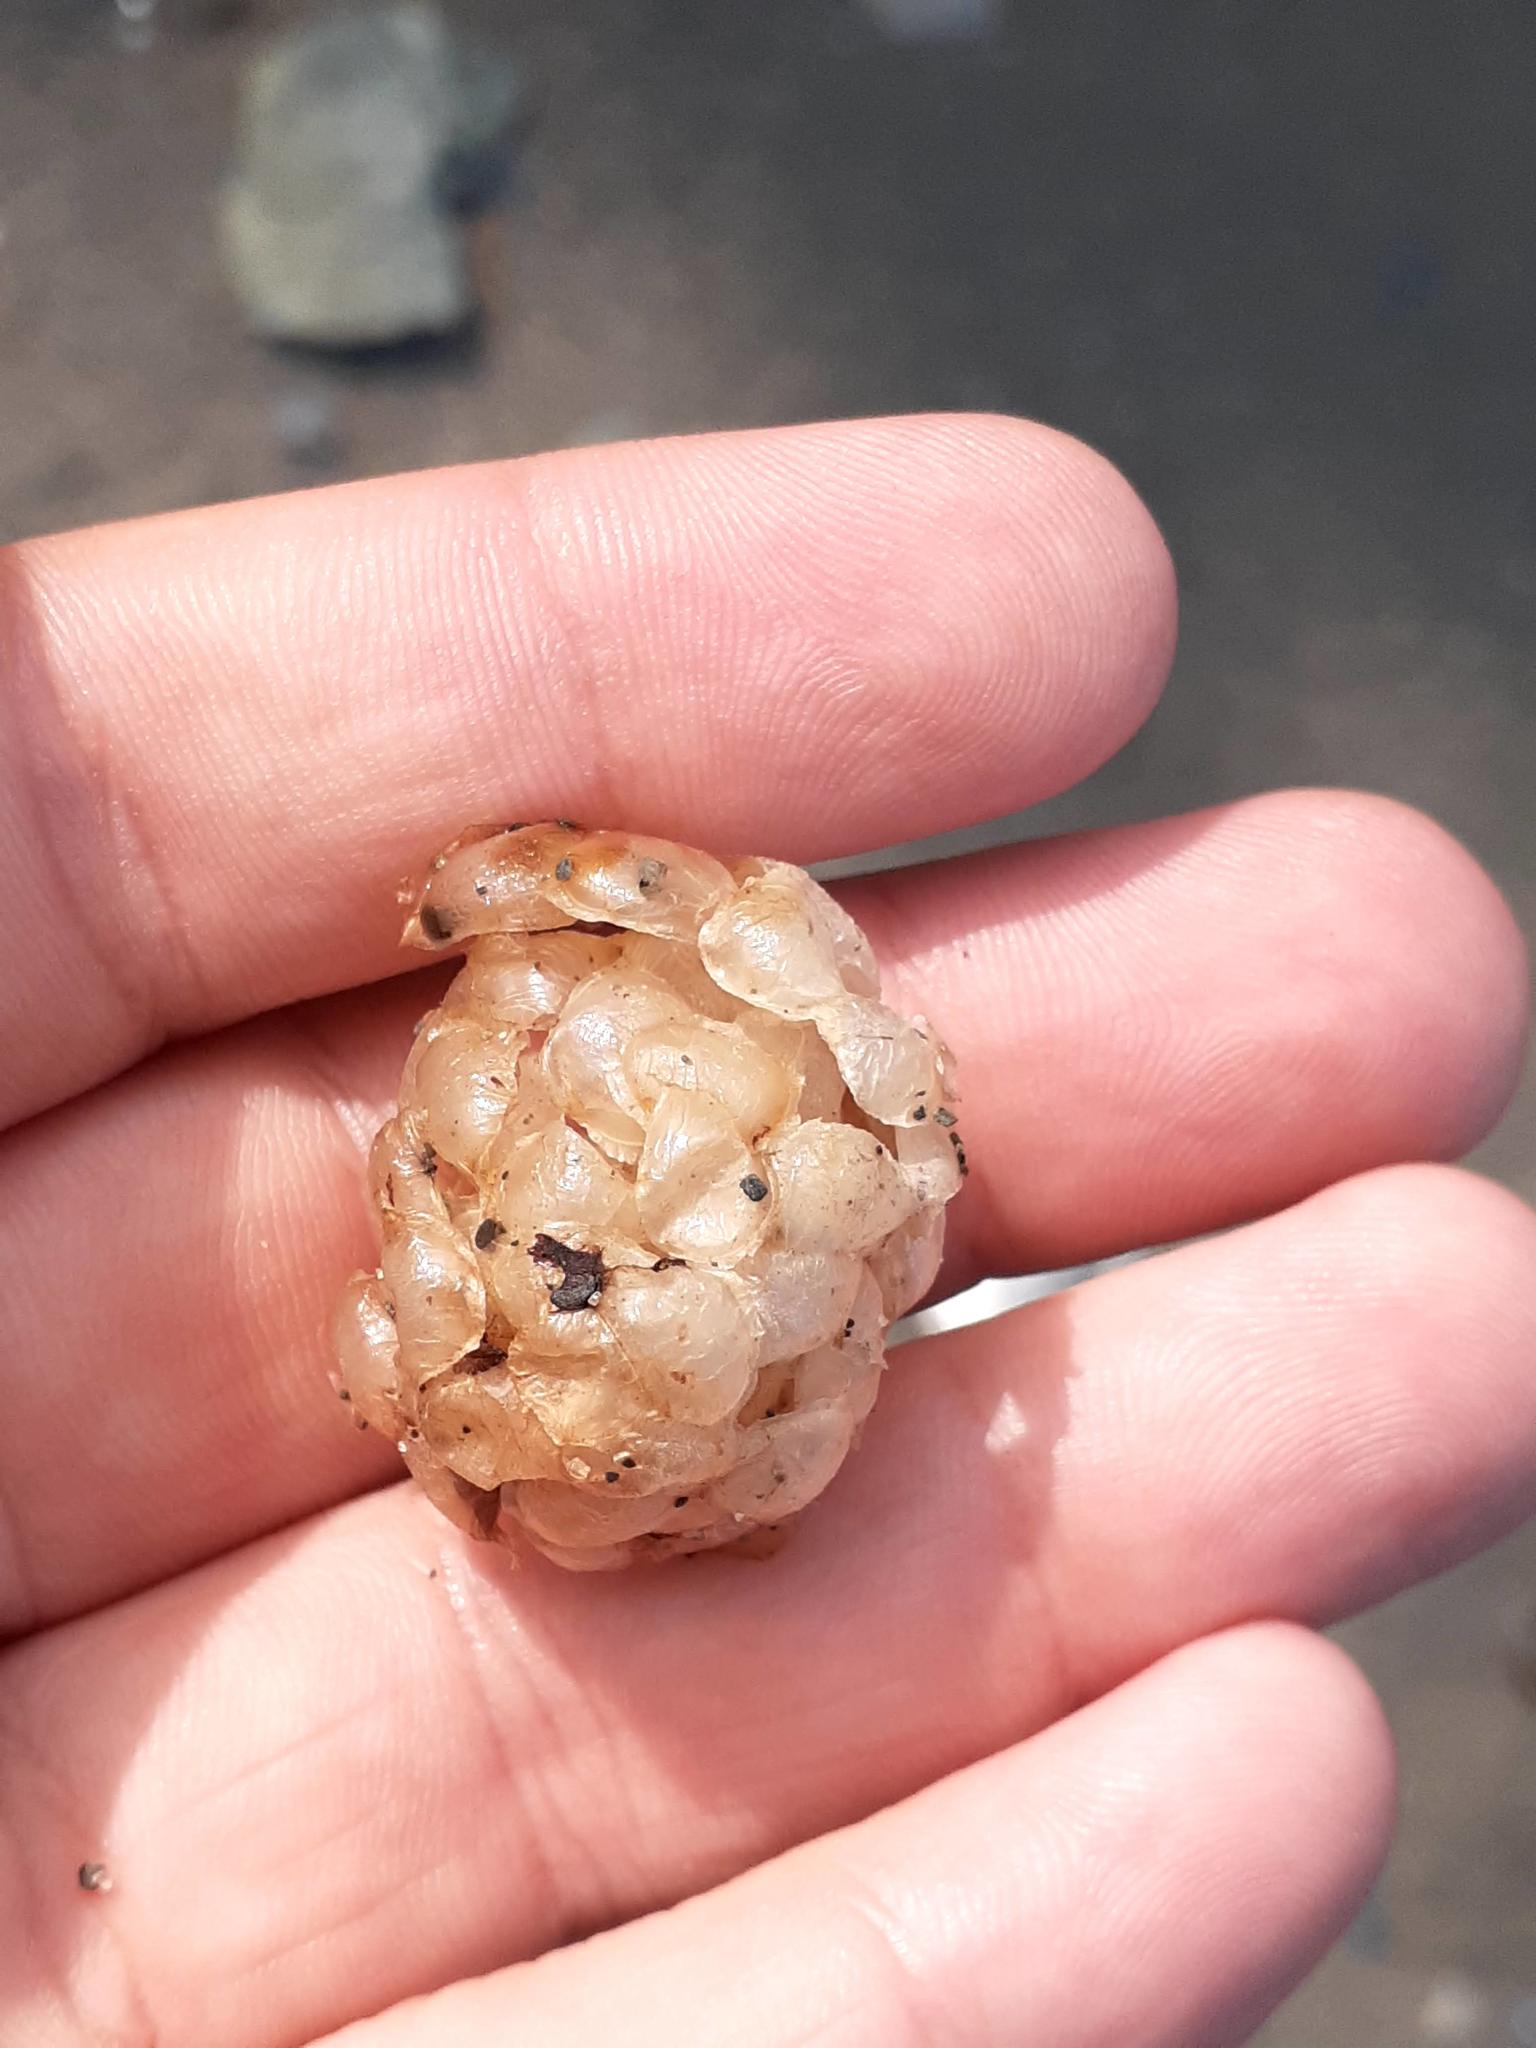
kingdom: Animalia
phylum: Mollusca
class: Gastropoda
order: Neogastropoda
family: Buccinidae
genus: Buccinum
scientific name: Buccinum undatum
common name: Common whelk
